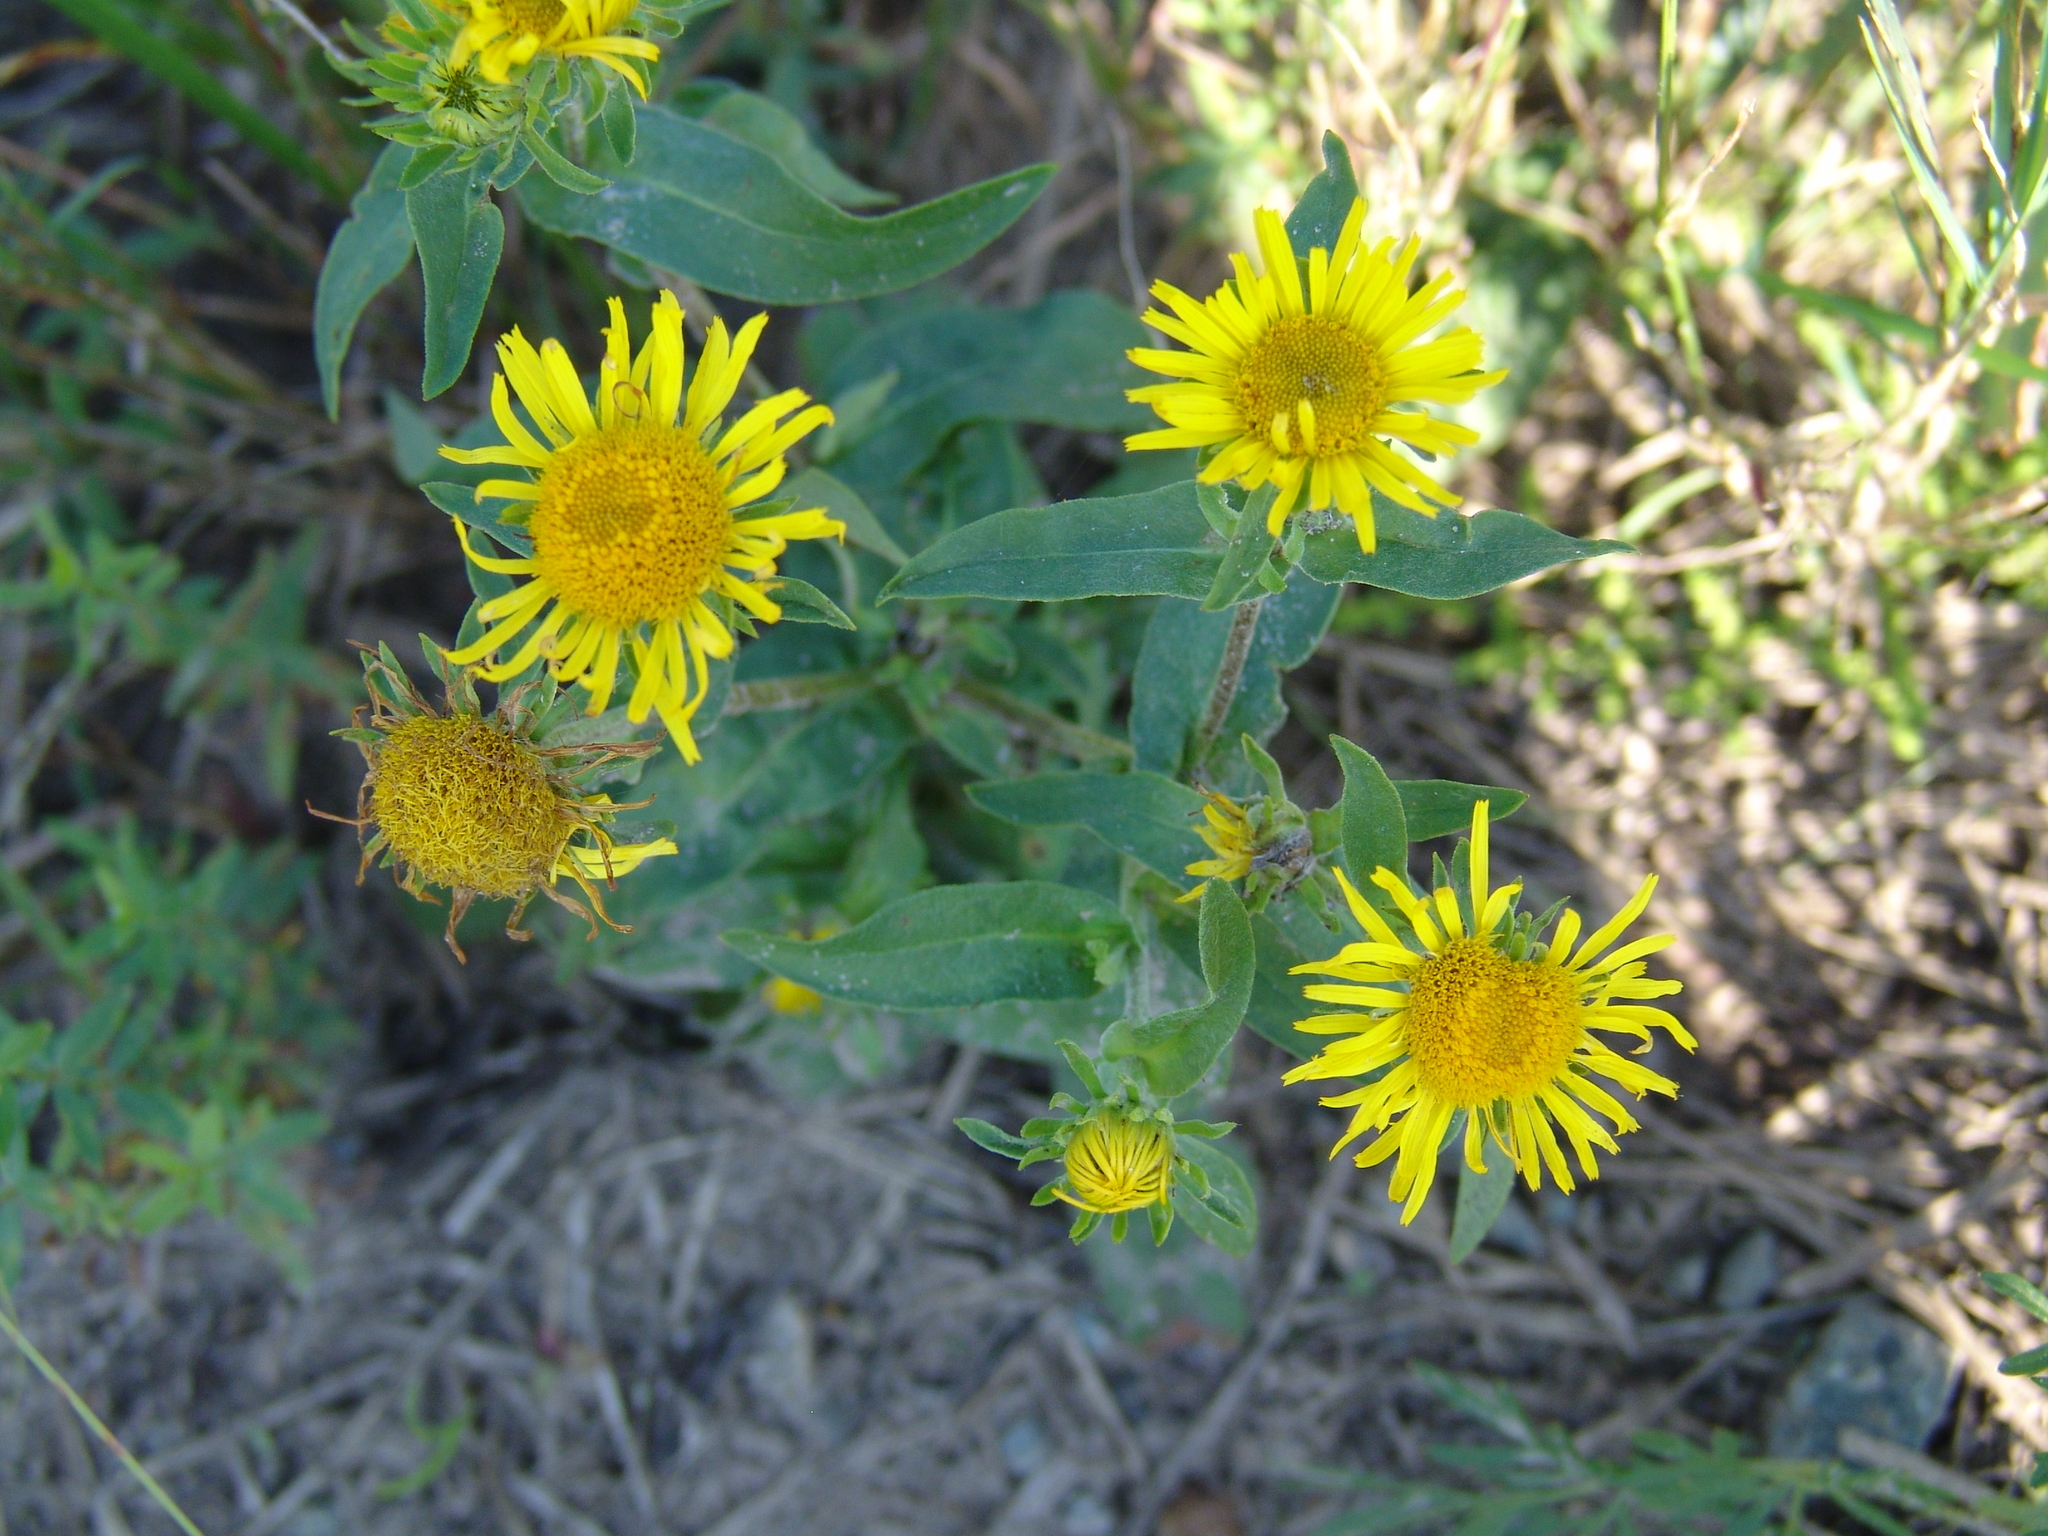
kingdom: Plantae
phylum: Tracheophyta
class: Magnoliopsida
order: Asterales
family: Asteraceae
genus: Pentanema
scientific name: Pentanema britannicum
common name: British elecampane
